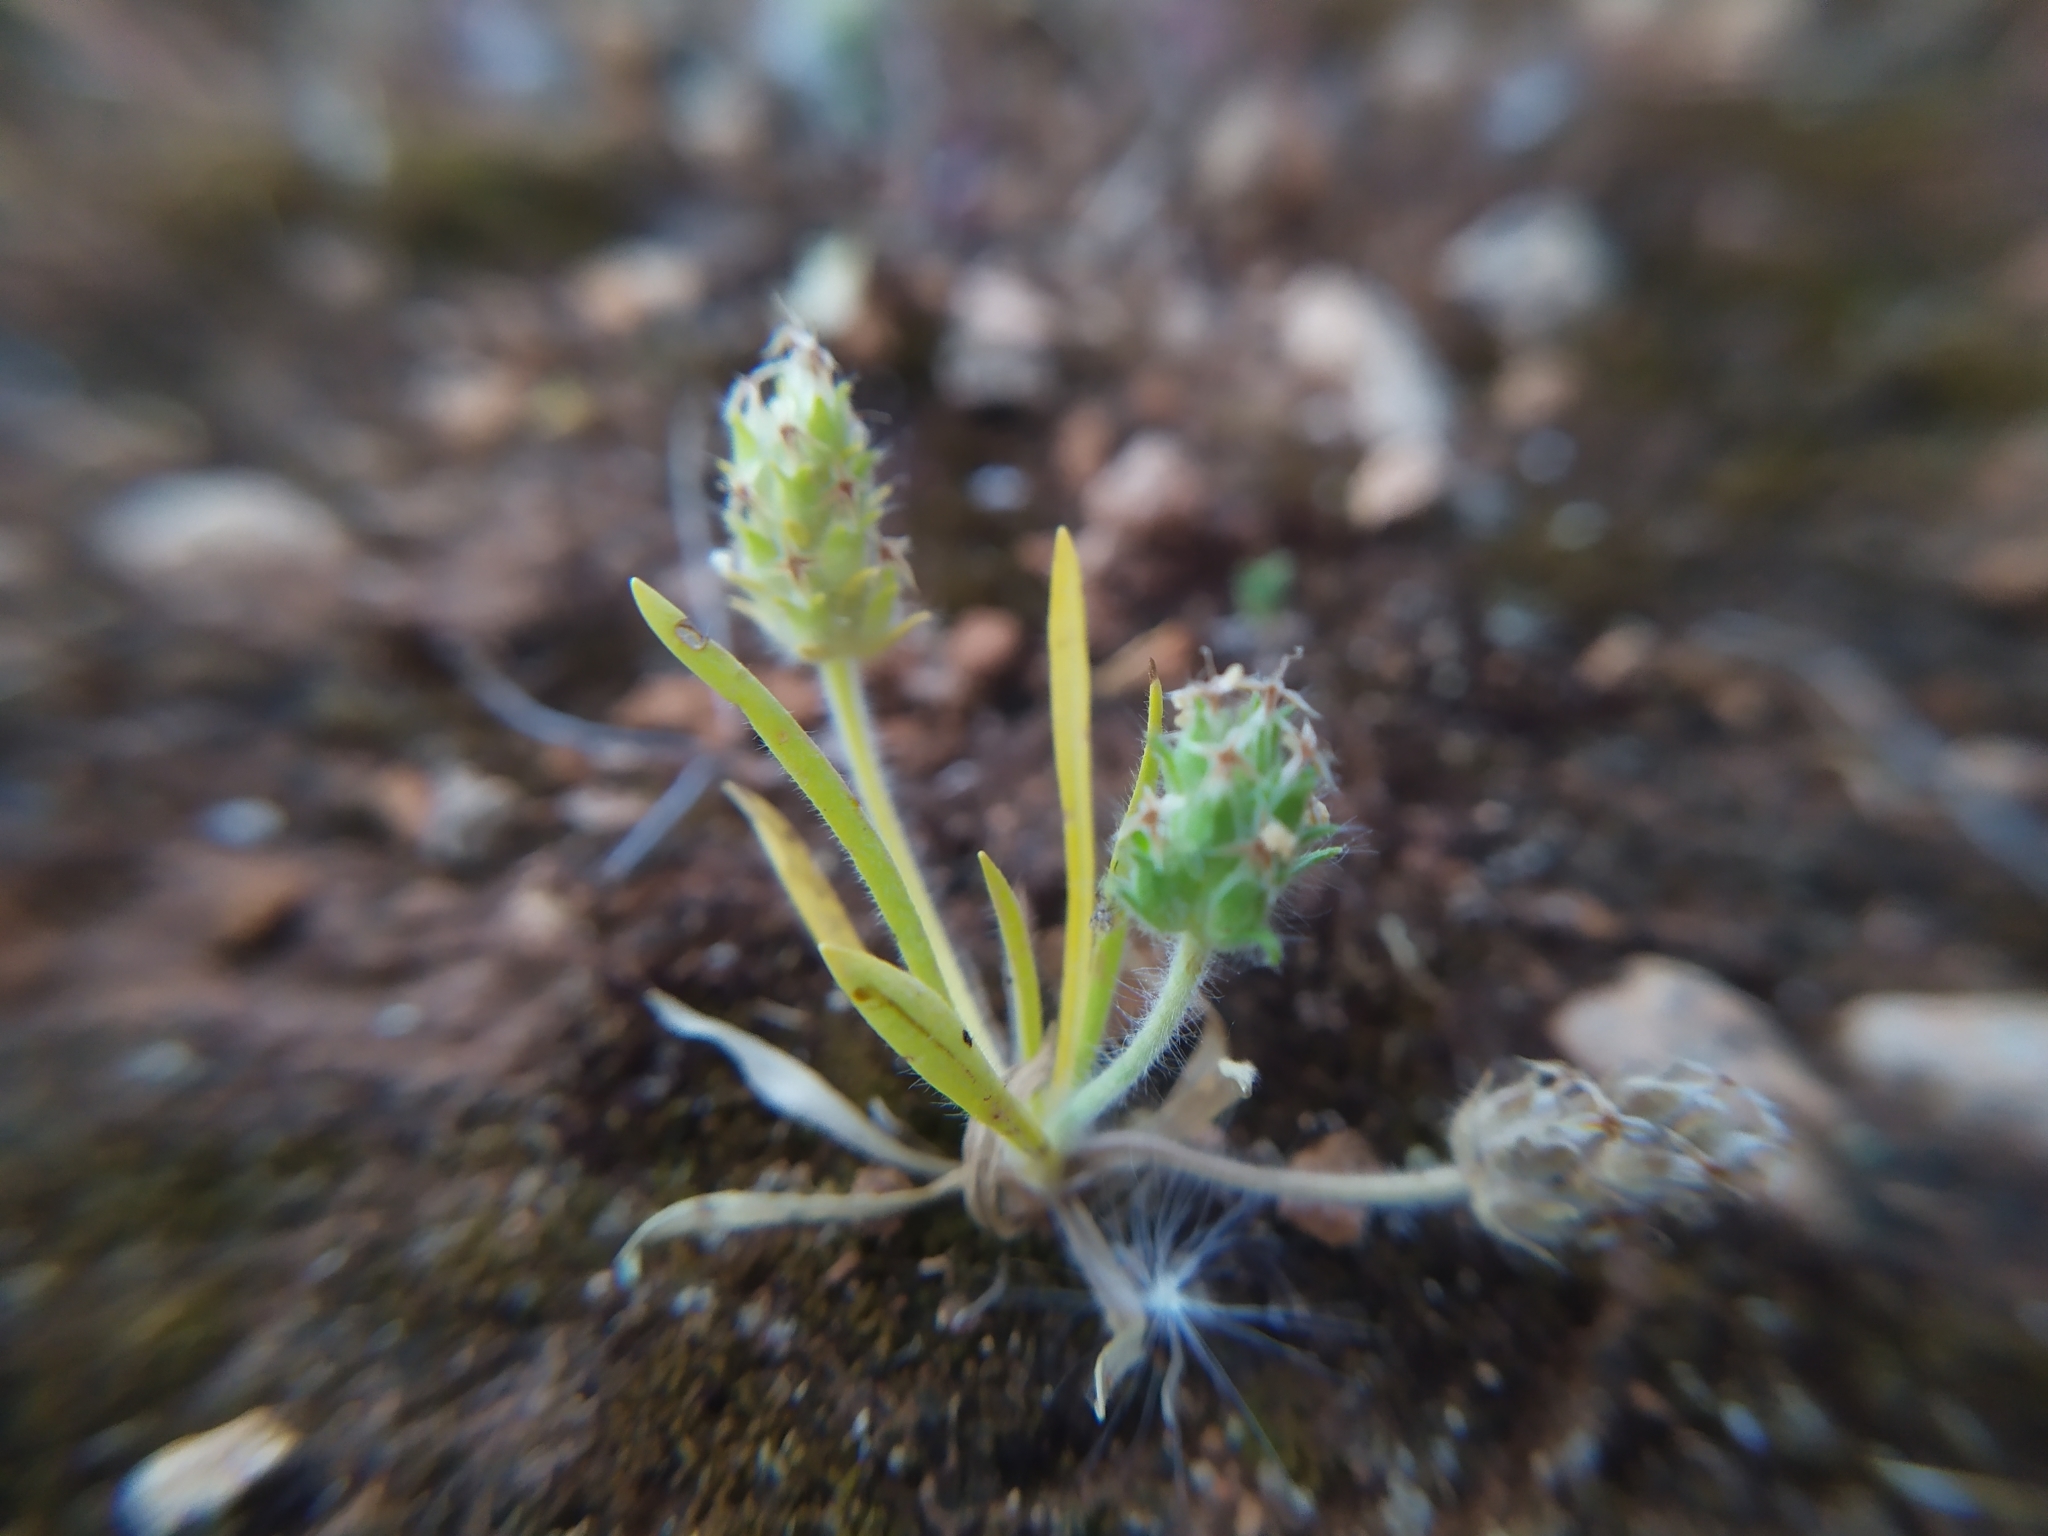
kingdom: Plantae
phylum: Tracheophyta
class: Magnoliopsida
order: Lamiales
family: Plantaginaceae
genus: Plantago
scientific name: Plantago bellardii
